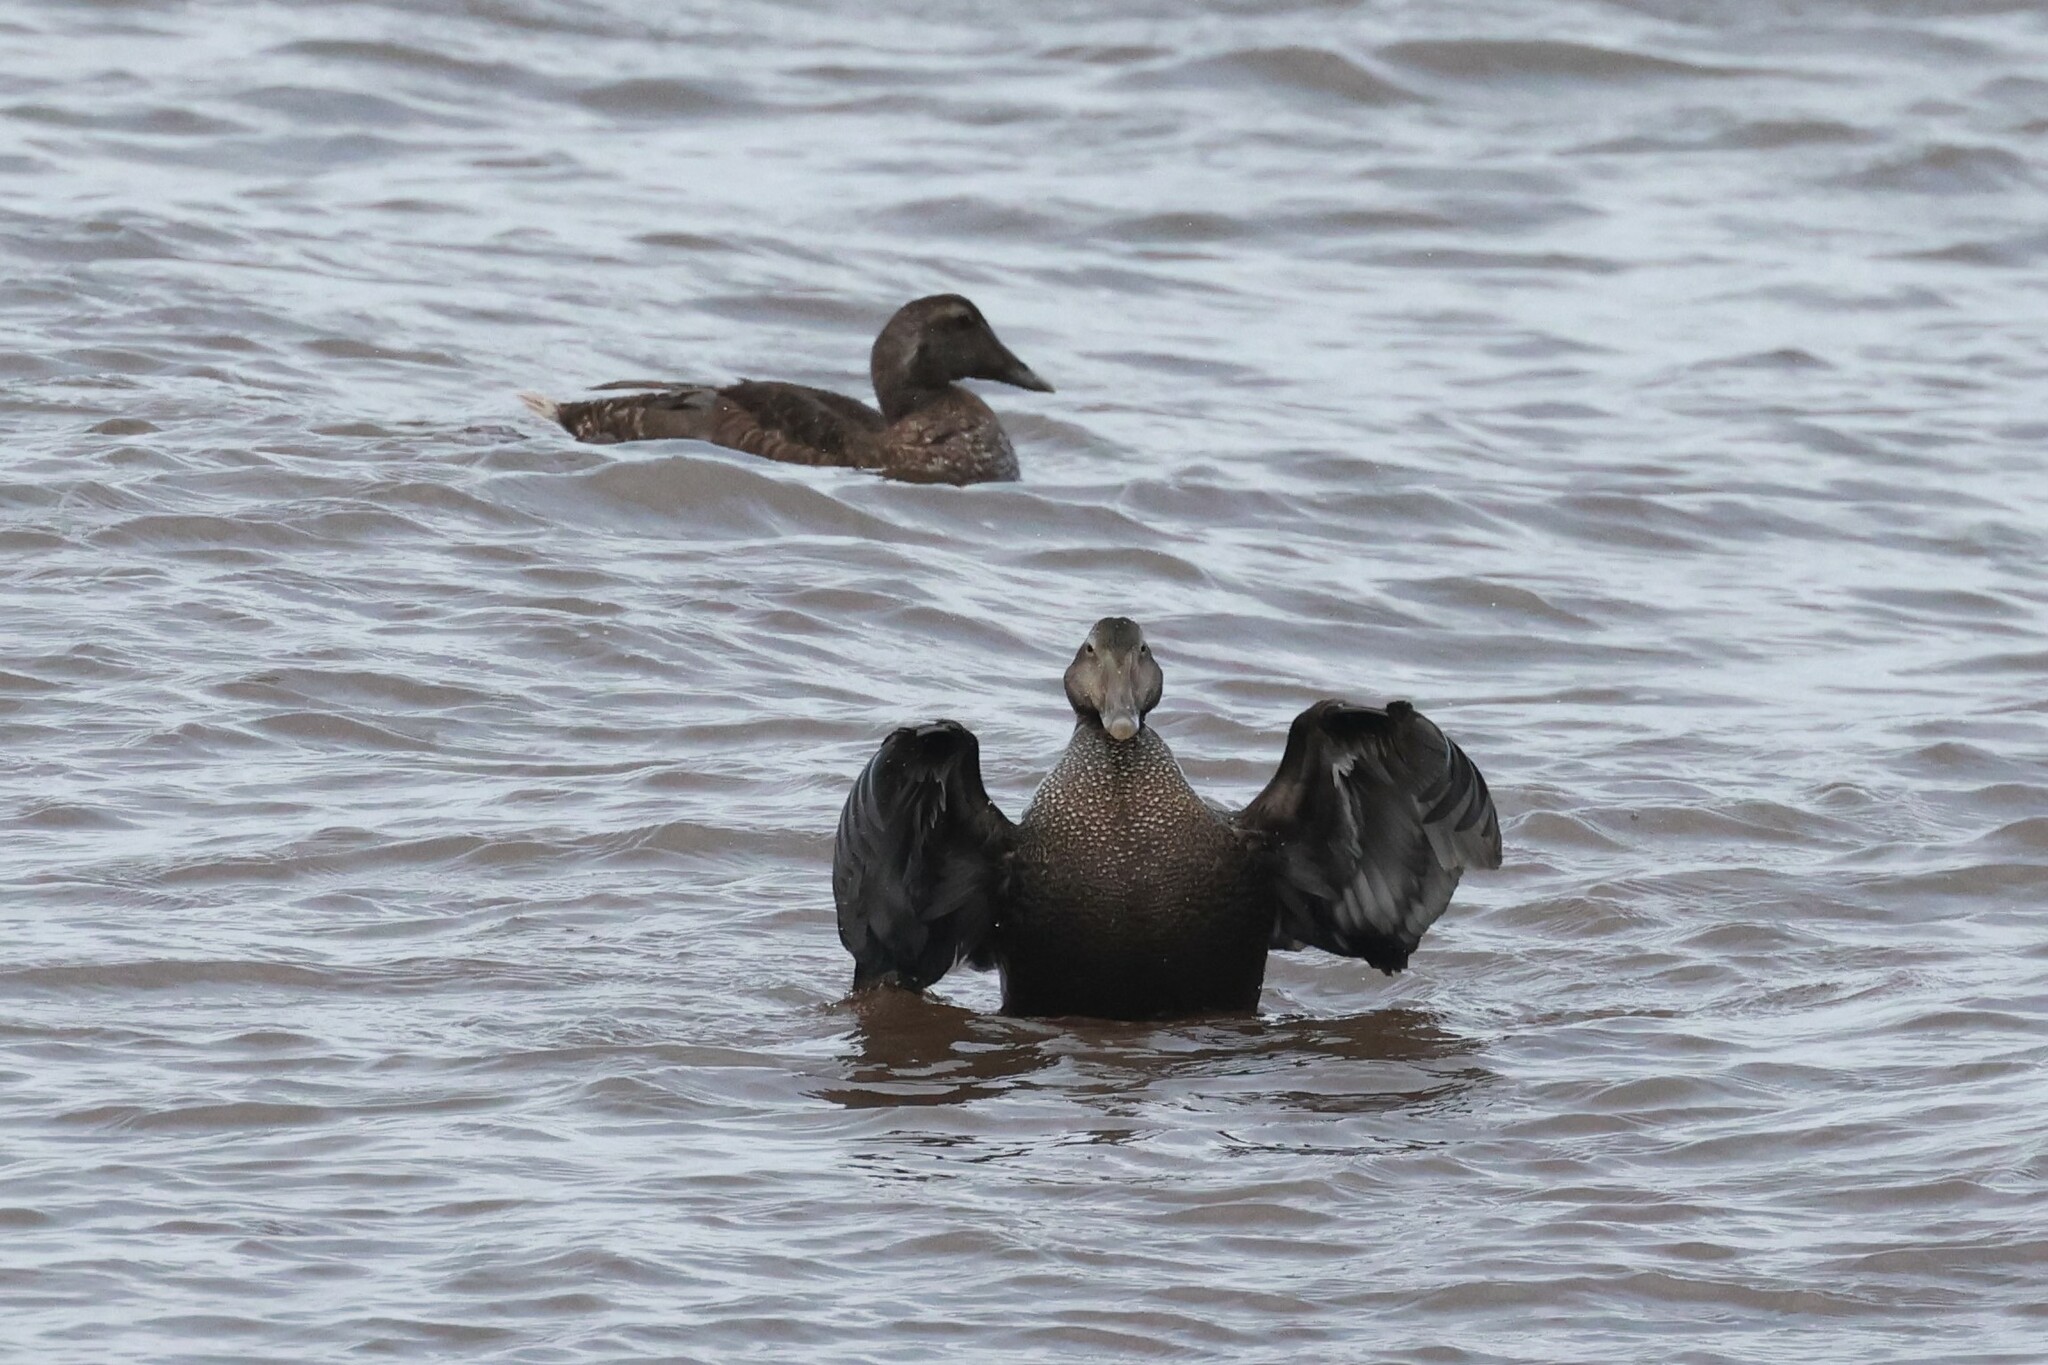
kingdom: Animalia
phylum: Chordata
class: Aves
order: Anseriformes
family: Anatidae
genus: Somateria
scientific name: Somateria mollissima
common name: Common eider
